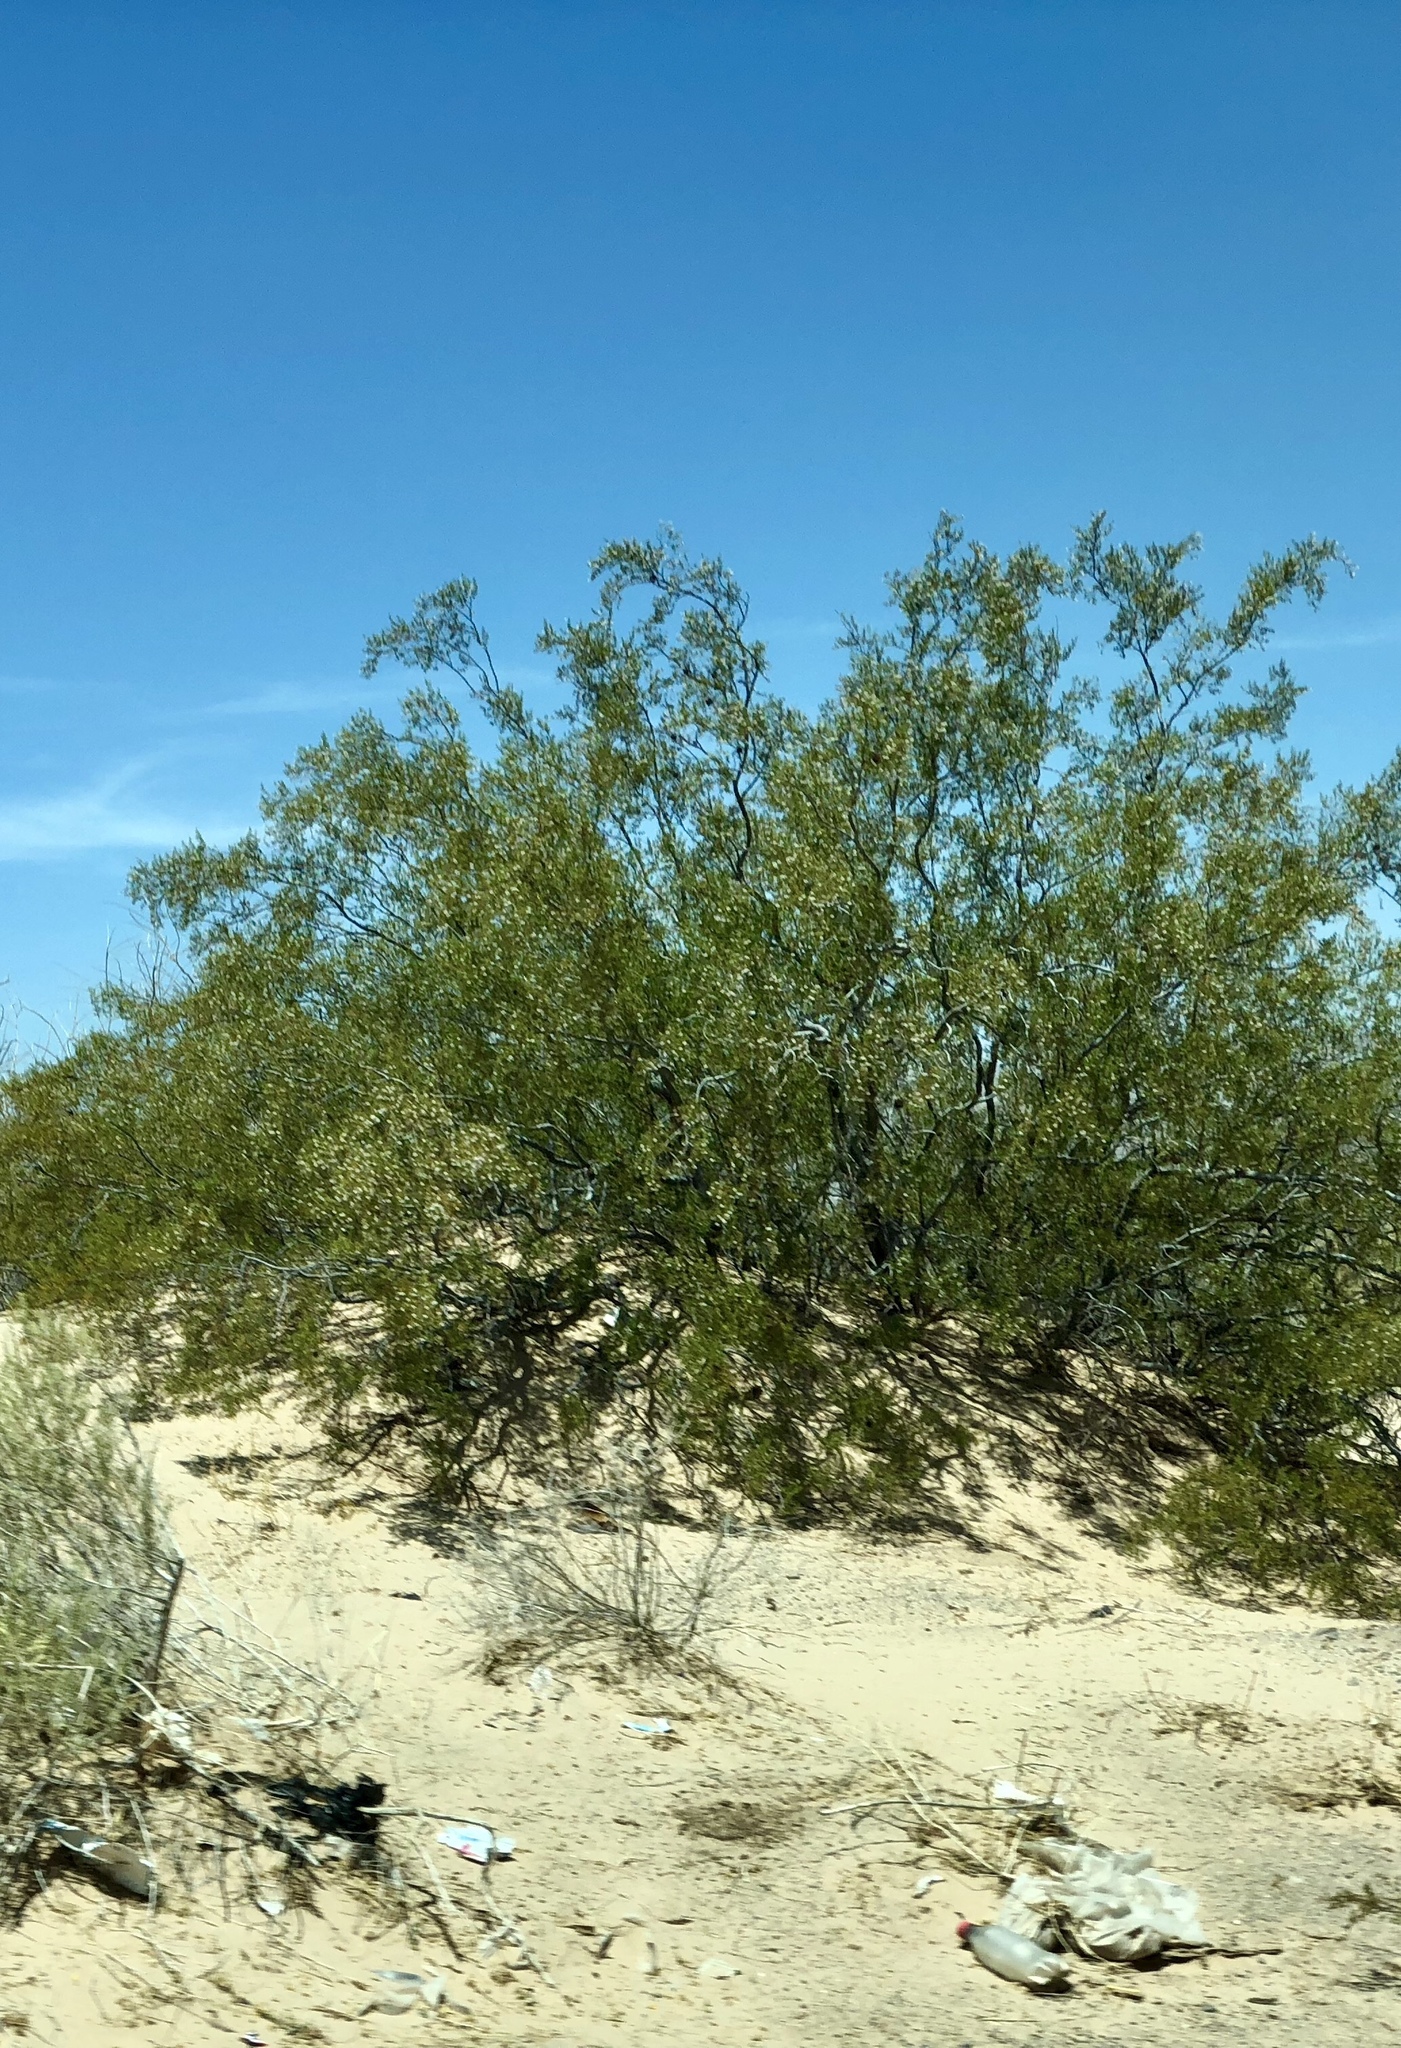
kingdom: Plantae
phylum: Tracheophyta
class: Magnoliopsida
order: Zygophyllales
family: Zygophyllaceae
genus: Larrea
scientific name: Larrea tridentata
